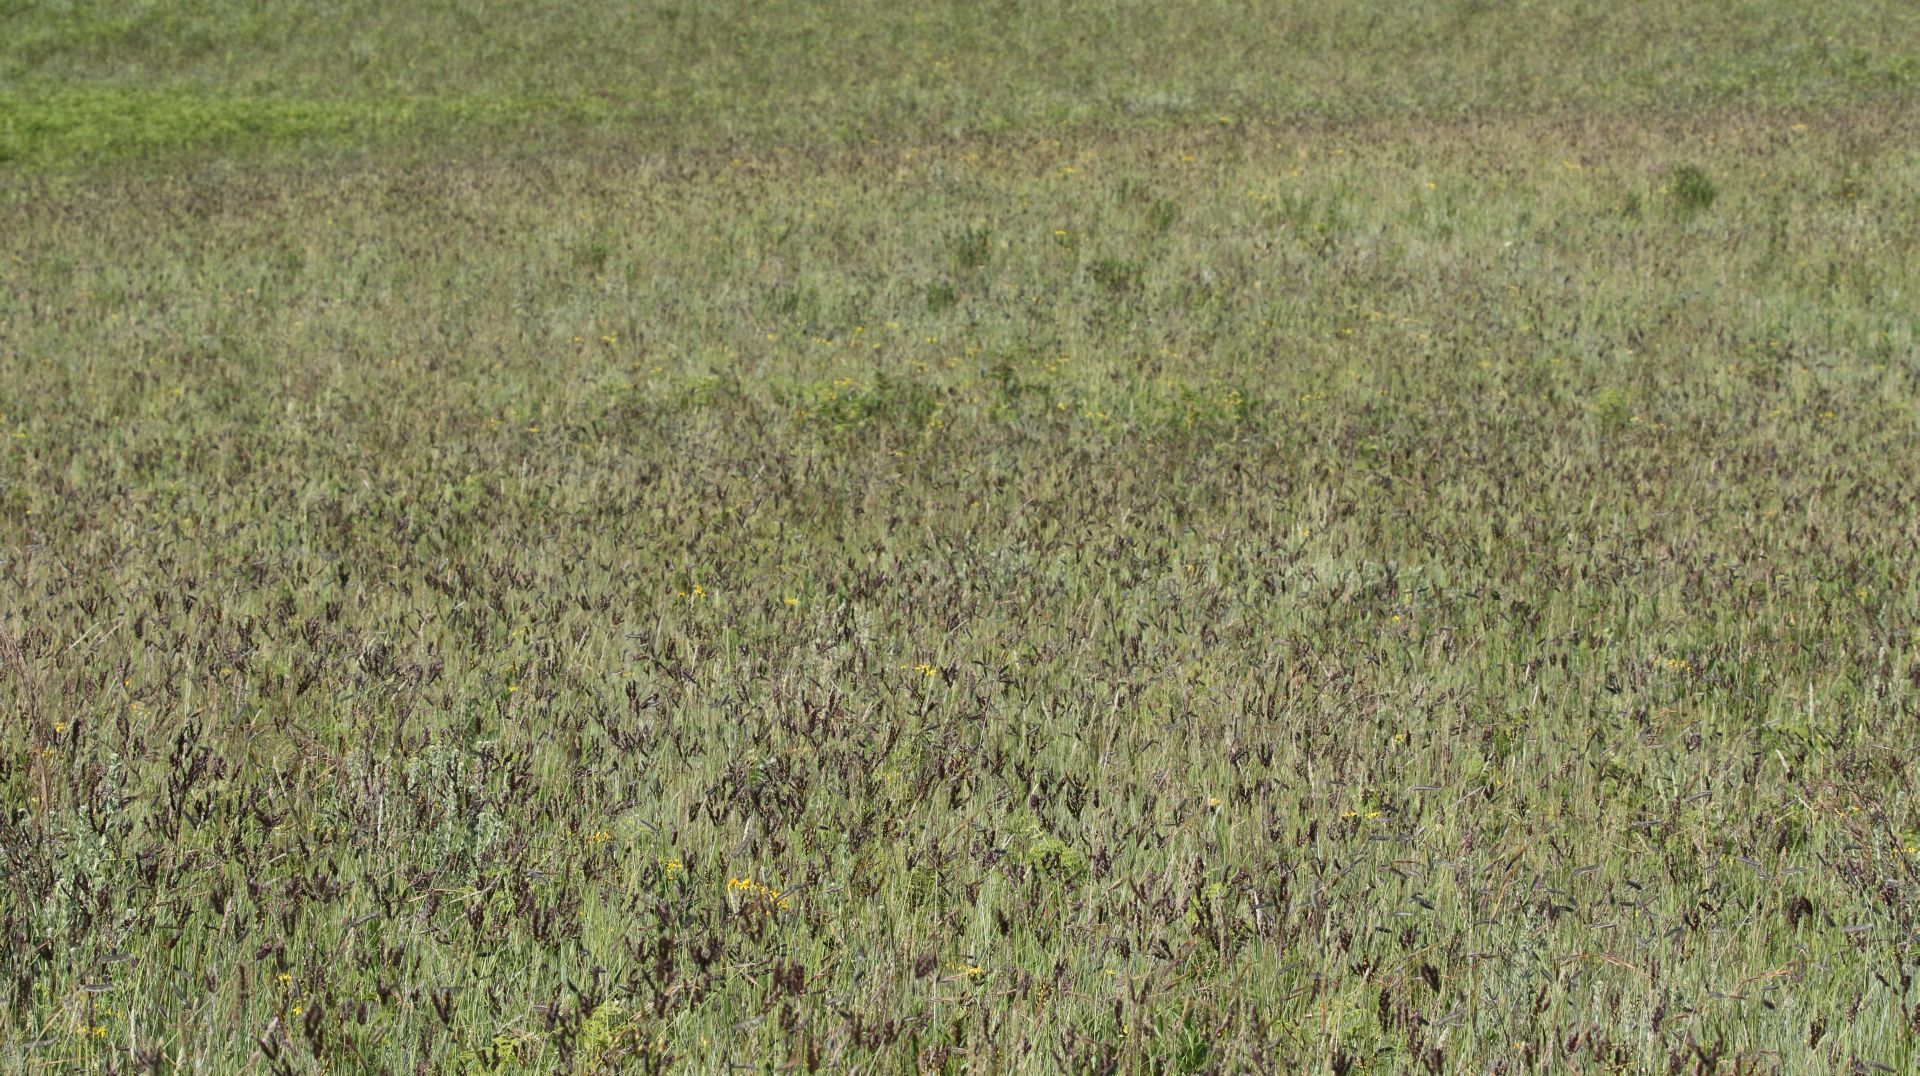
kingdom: Plantae
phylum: Tracheophyta
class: Liliopsida
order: Poales
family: Poaceae
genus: Alloteropsis
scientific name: Alloteropsis semialata
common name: Cockatoo grass
